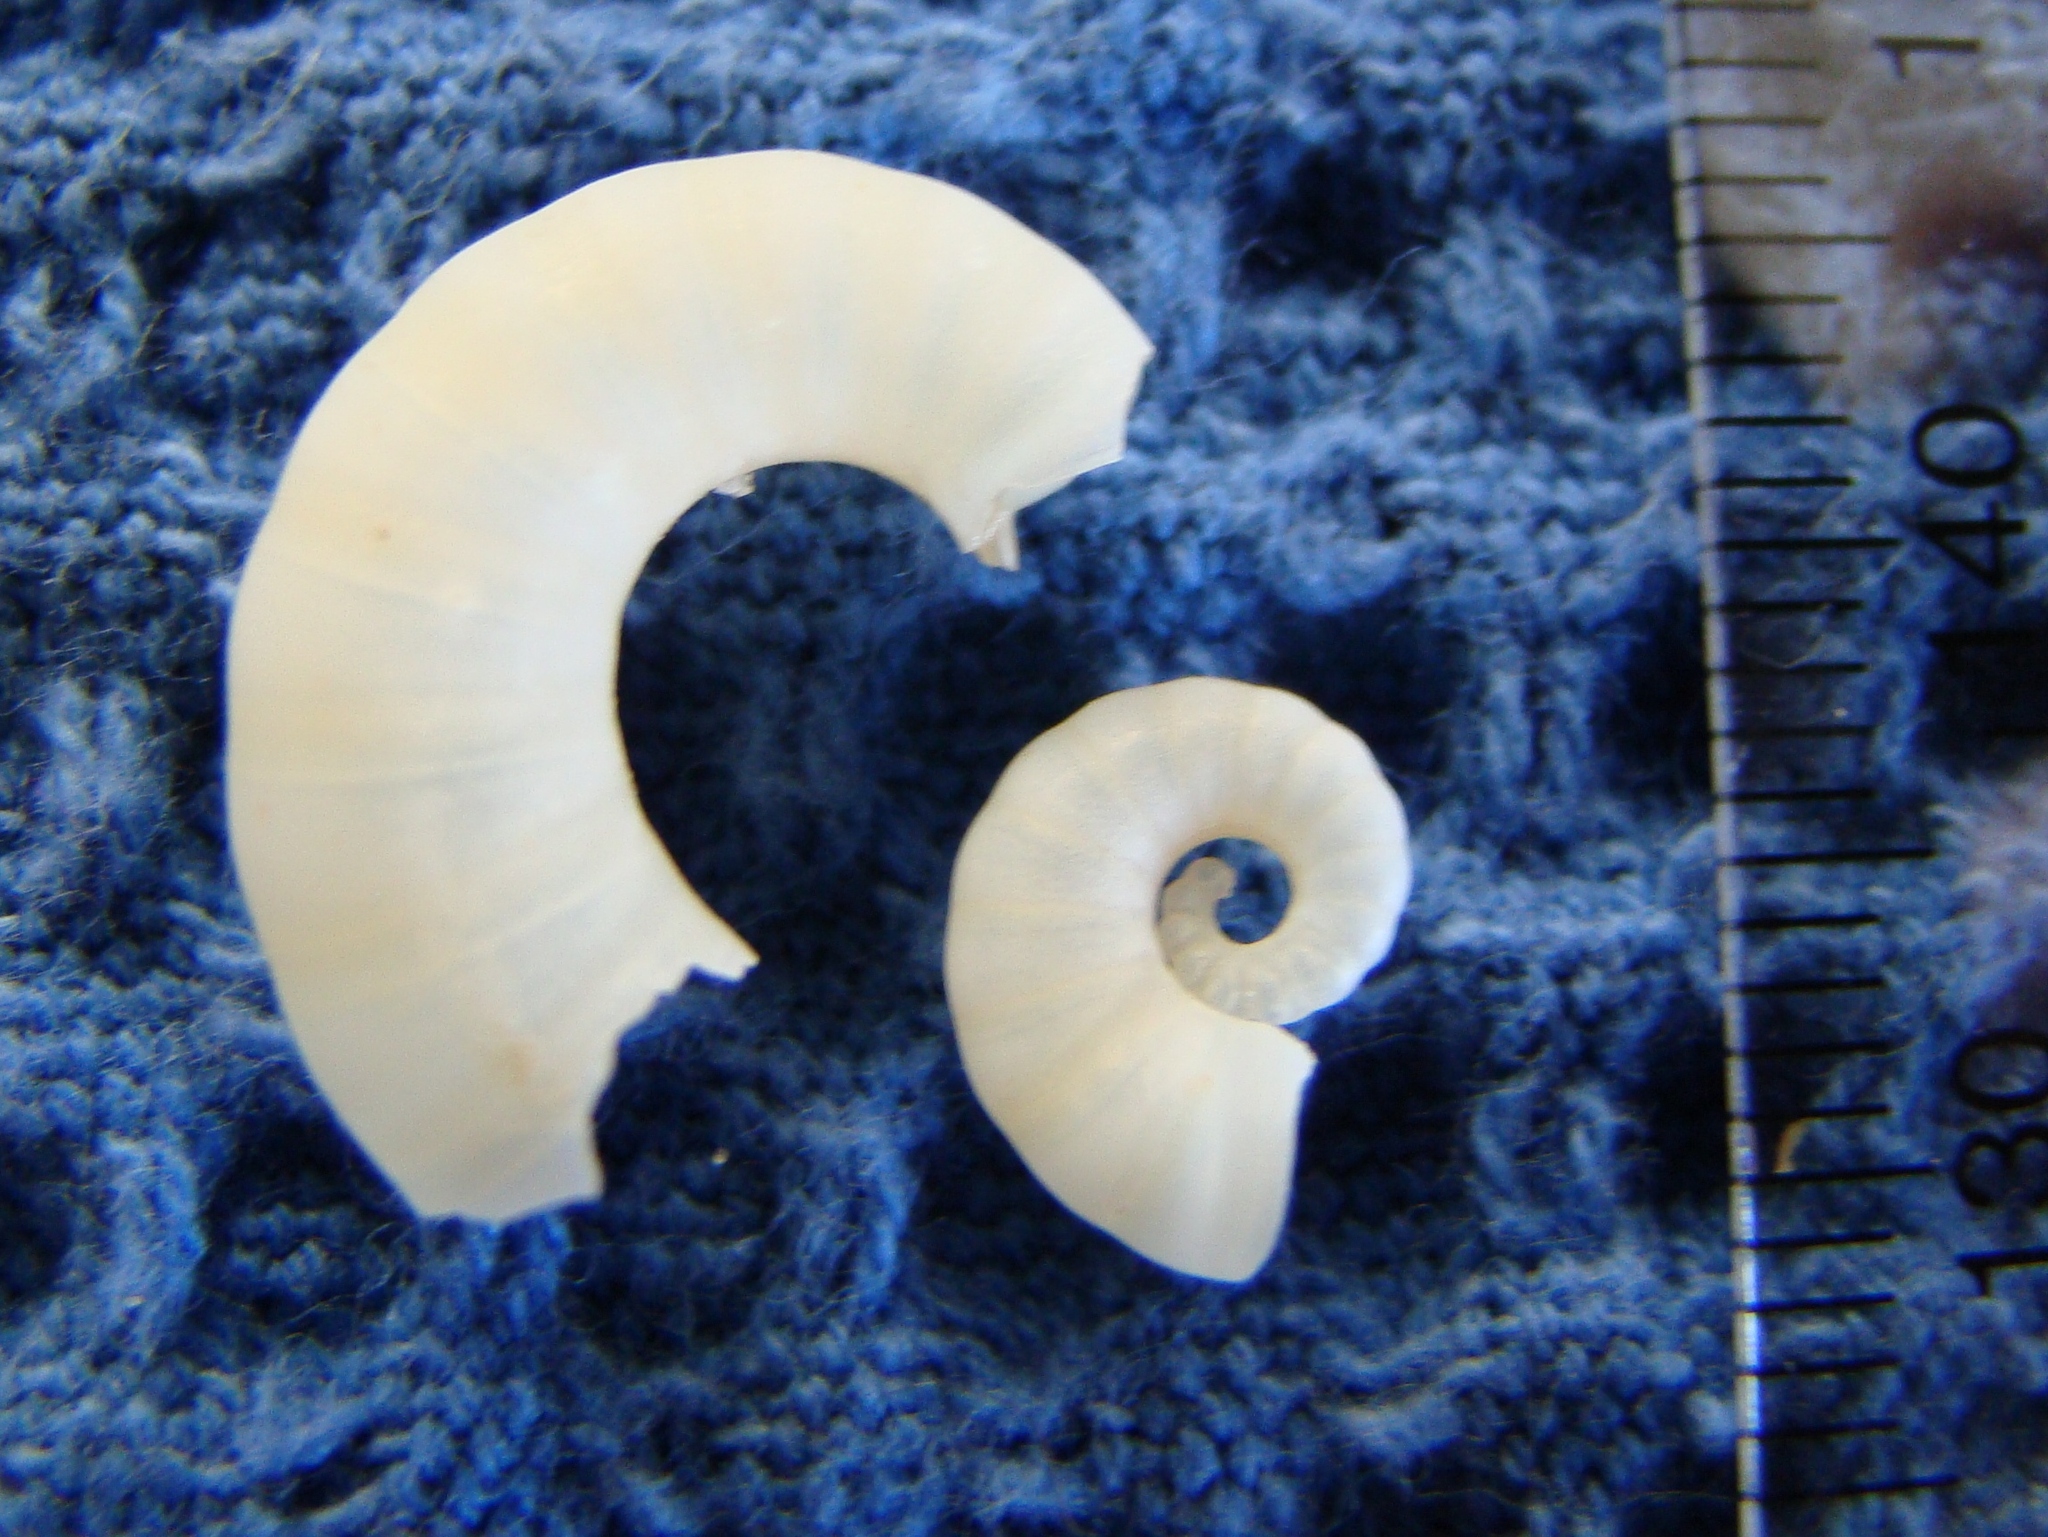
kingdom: Animalia
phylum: Mollusca
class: Cephalopoda
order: Spirulida
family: Spirulidae
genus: Spirula
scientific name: Spirula spirula
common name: Ram's horn squid
